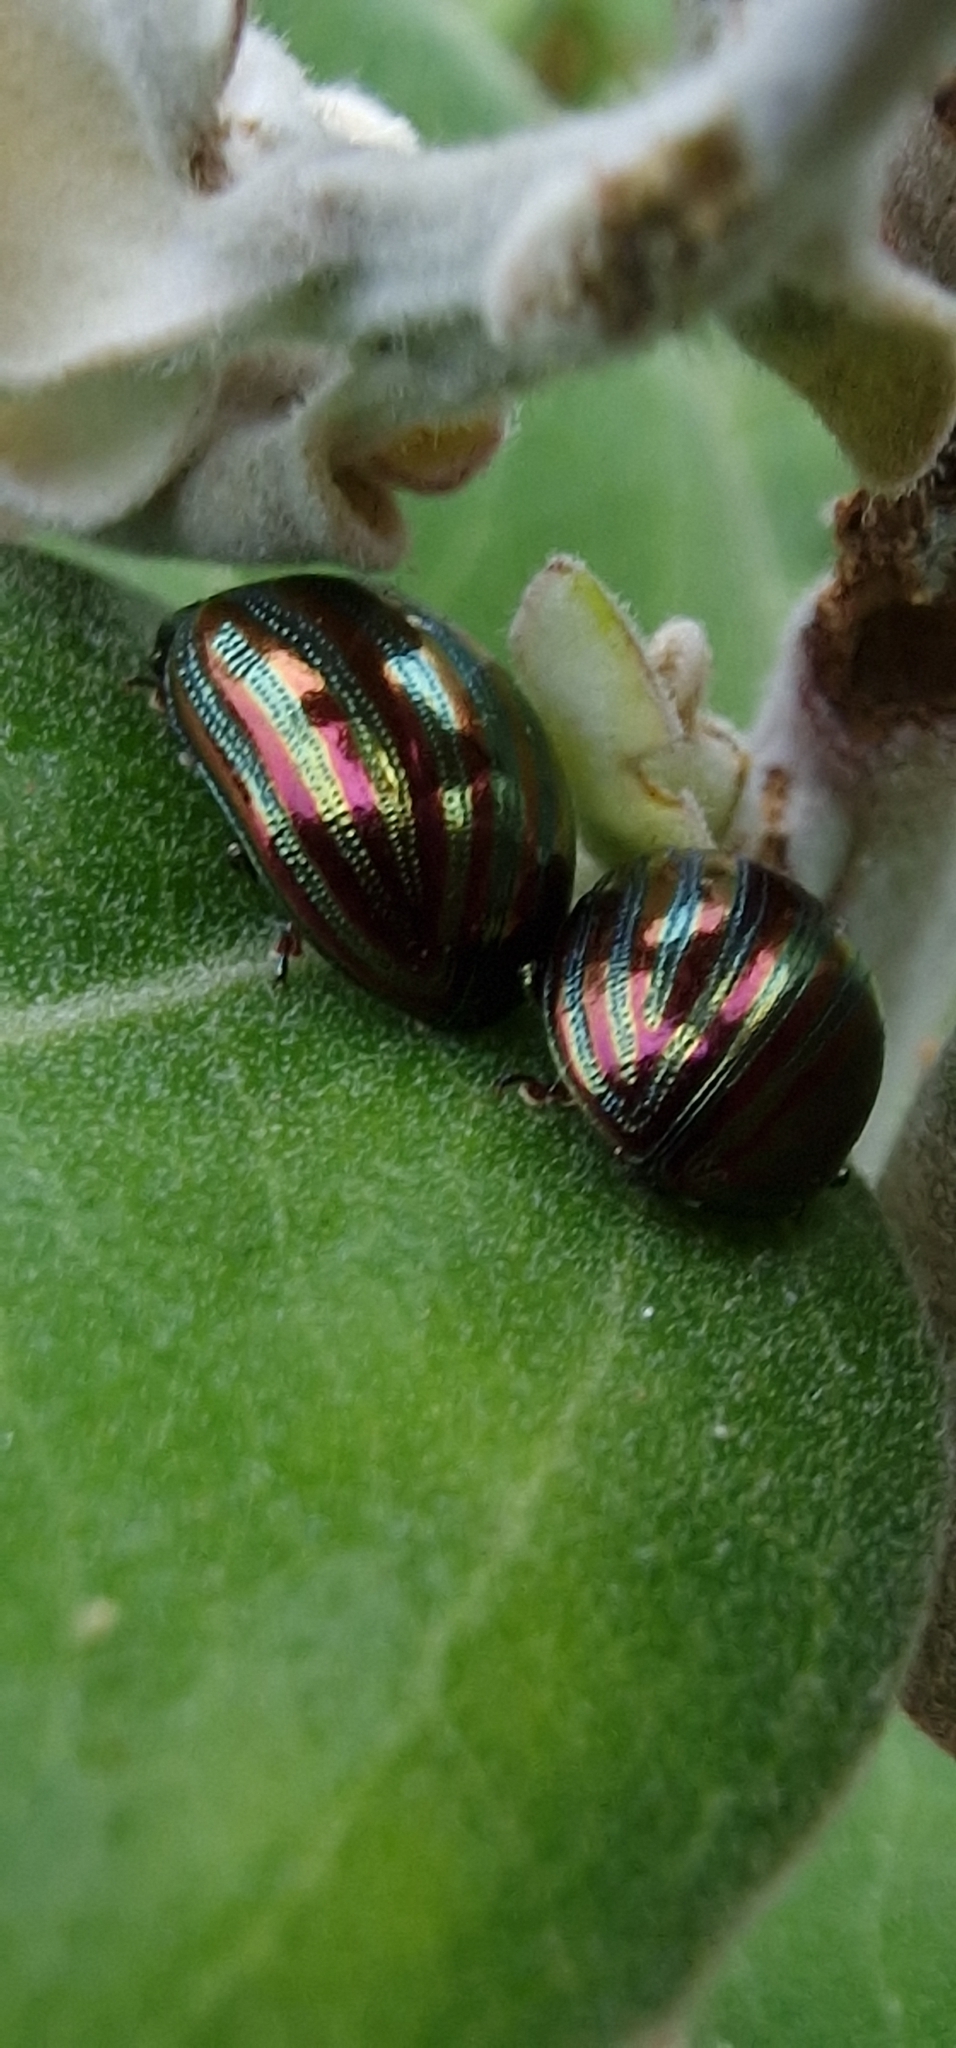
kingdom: Animalia
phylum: Arthropoda
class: Insecta
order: Coleoptera
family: Chrysomelidae
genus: Chrysolina
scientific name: Chrysolina americana
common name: Rosemary beetle
